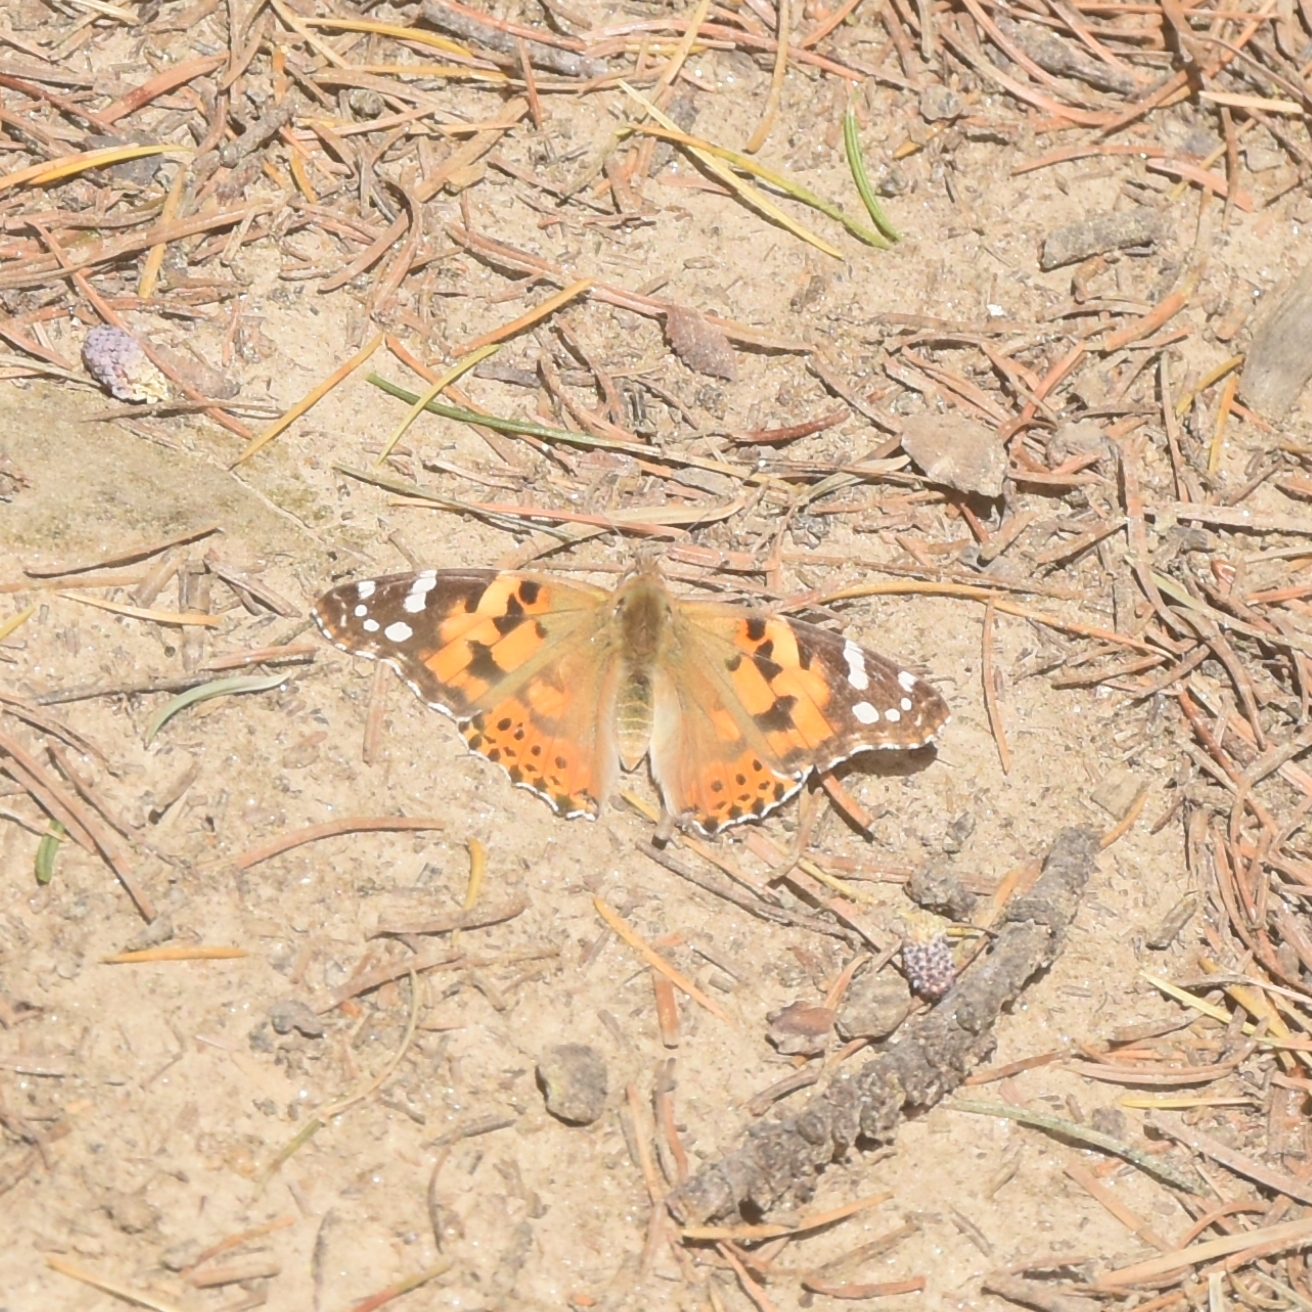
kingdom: Animalia
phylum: Arthropoda
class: Insecta
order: Lepidoptera
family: Nymphalidae
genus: Vanessa
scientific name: Vanessa cardui
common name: Painted lady
